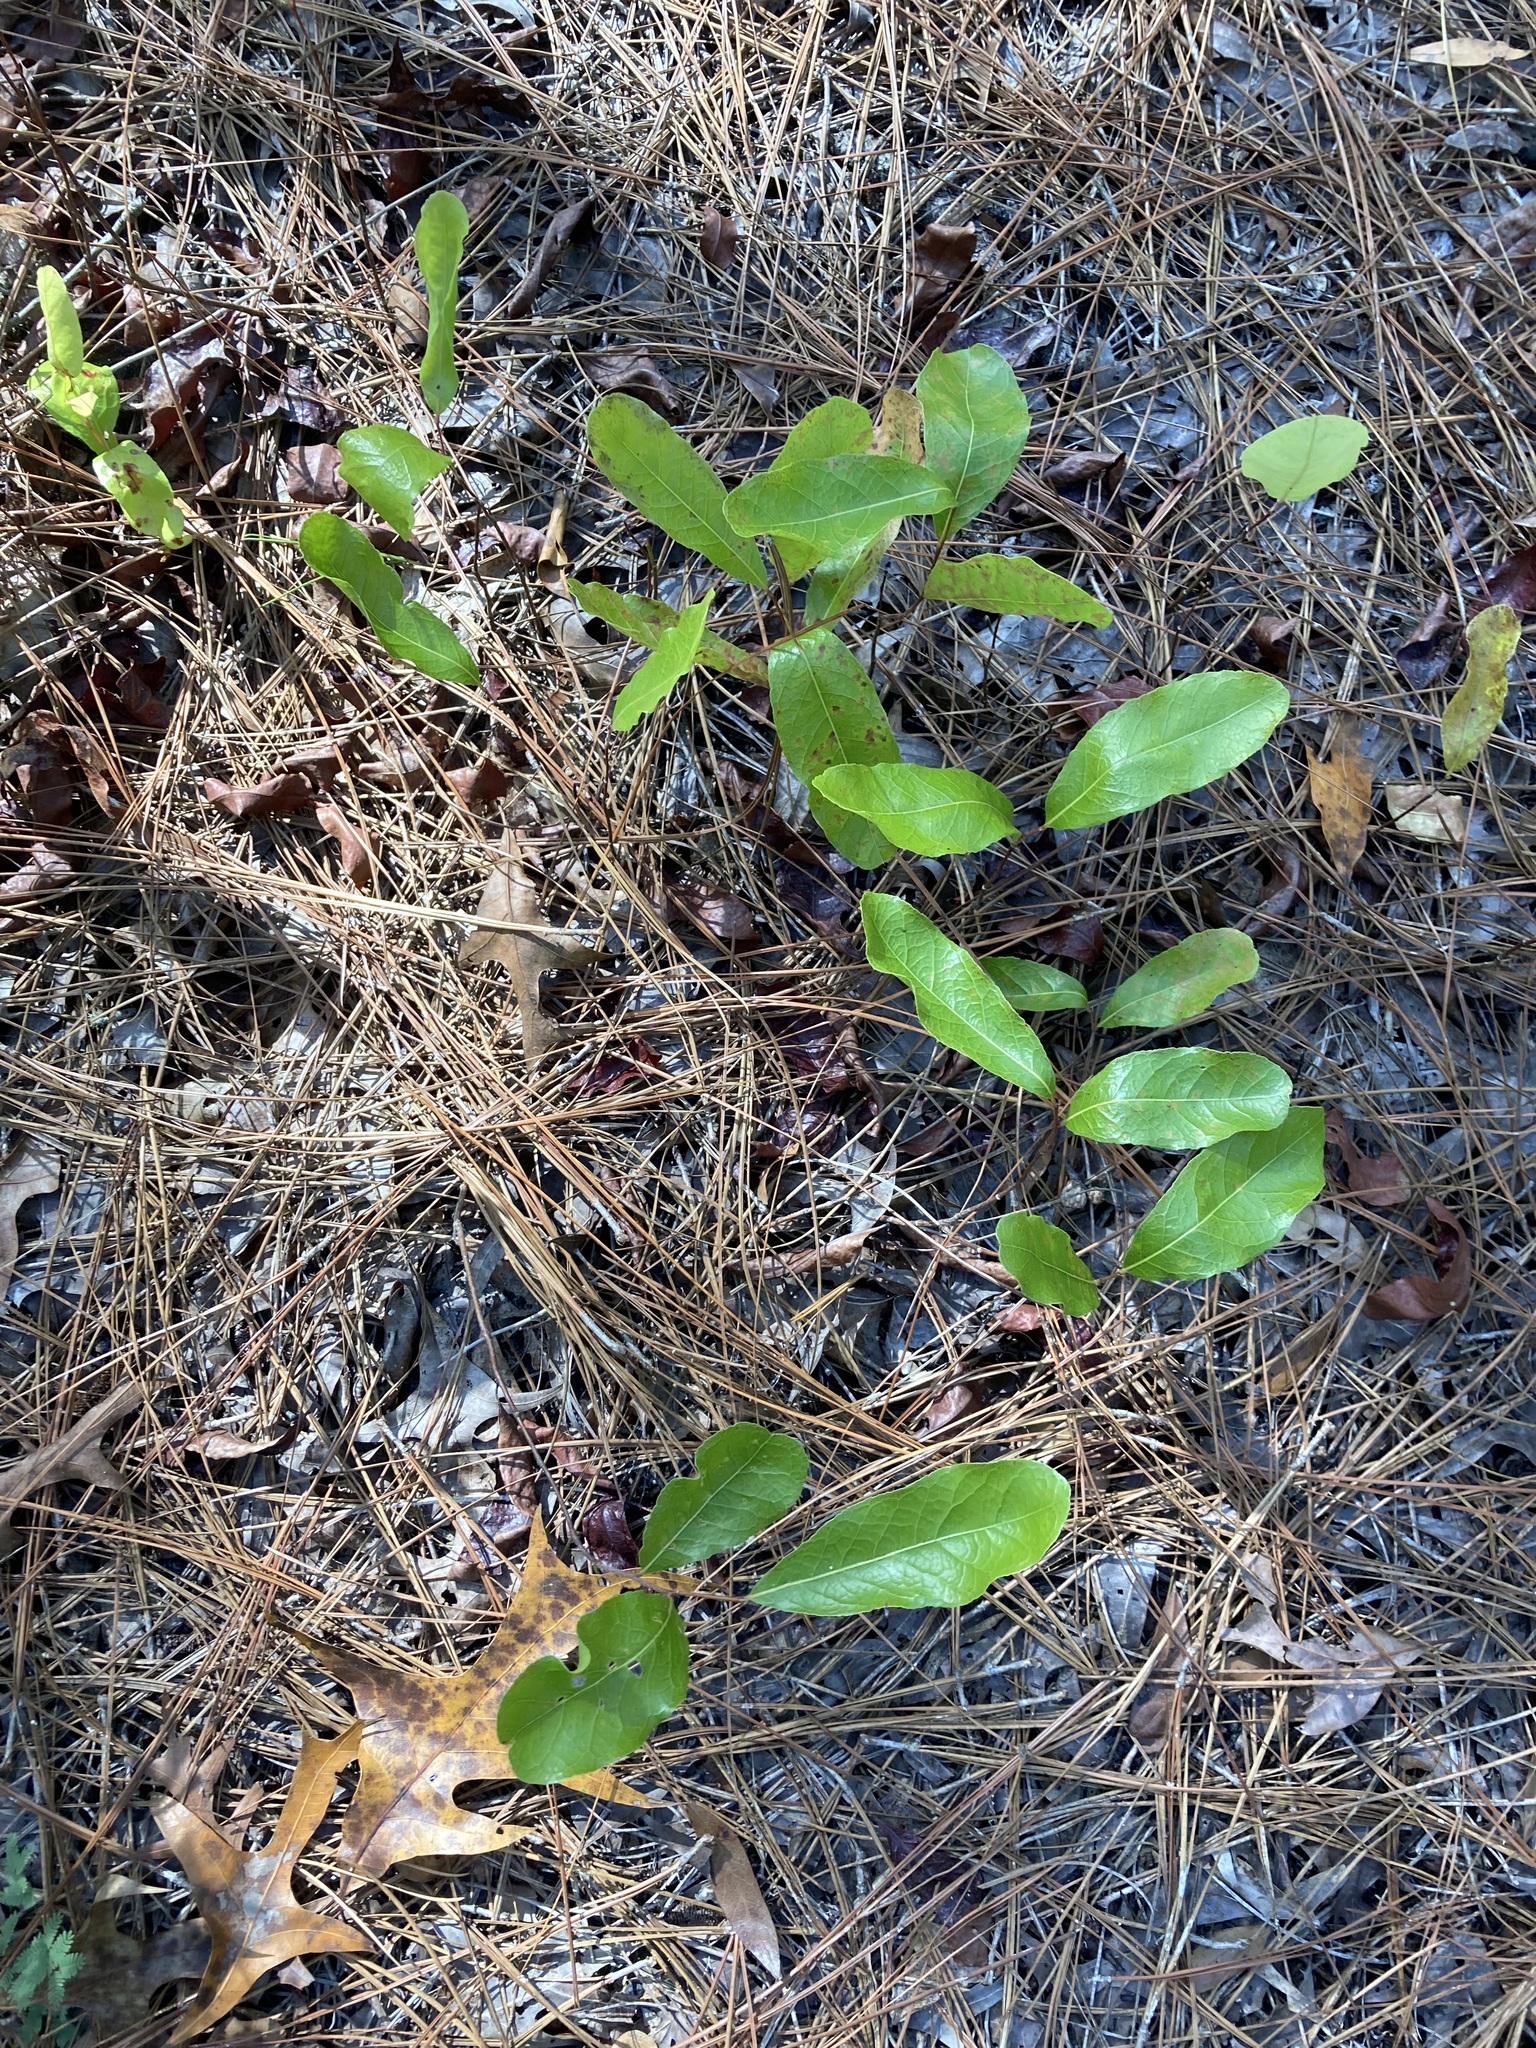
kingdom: Plantae
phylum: Tracheophyta
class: Magnoliopsida
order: Malpighiales
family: Chrysobalanaceae
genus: Geobalanus
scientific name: Geobalanus oblongifolius
